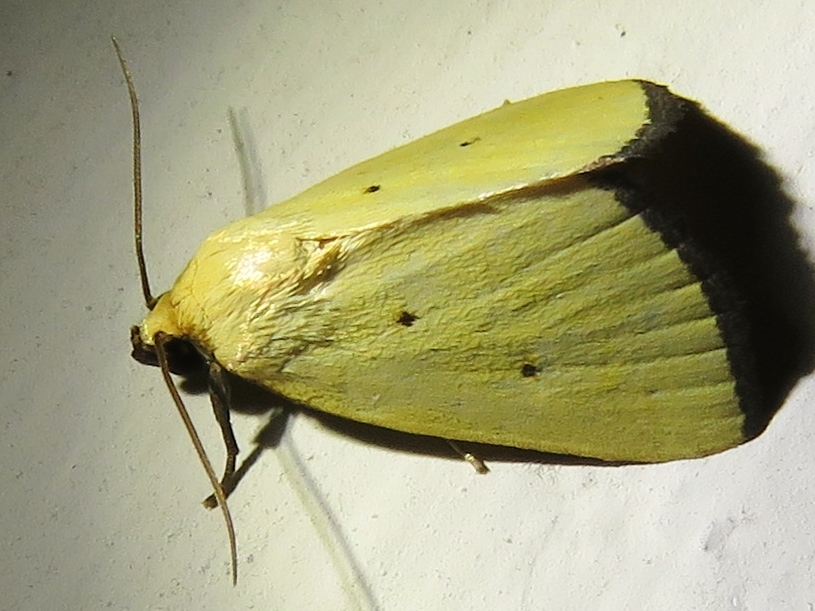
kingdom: Animalia
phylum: Arthropoda
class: Insecta
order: Lepidoptera
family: Noctuidae
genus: Marimatha
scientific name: Marimatha nigrofimbria
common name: Black-bordered lemon moth
